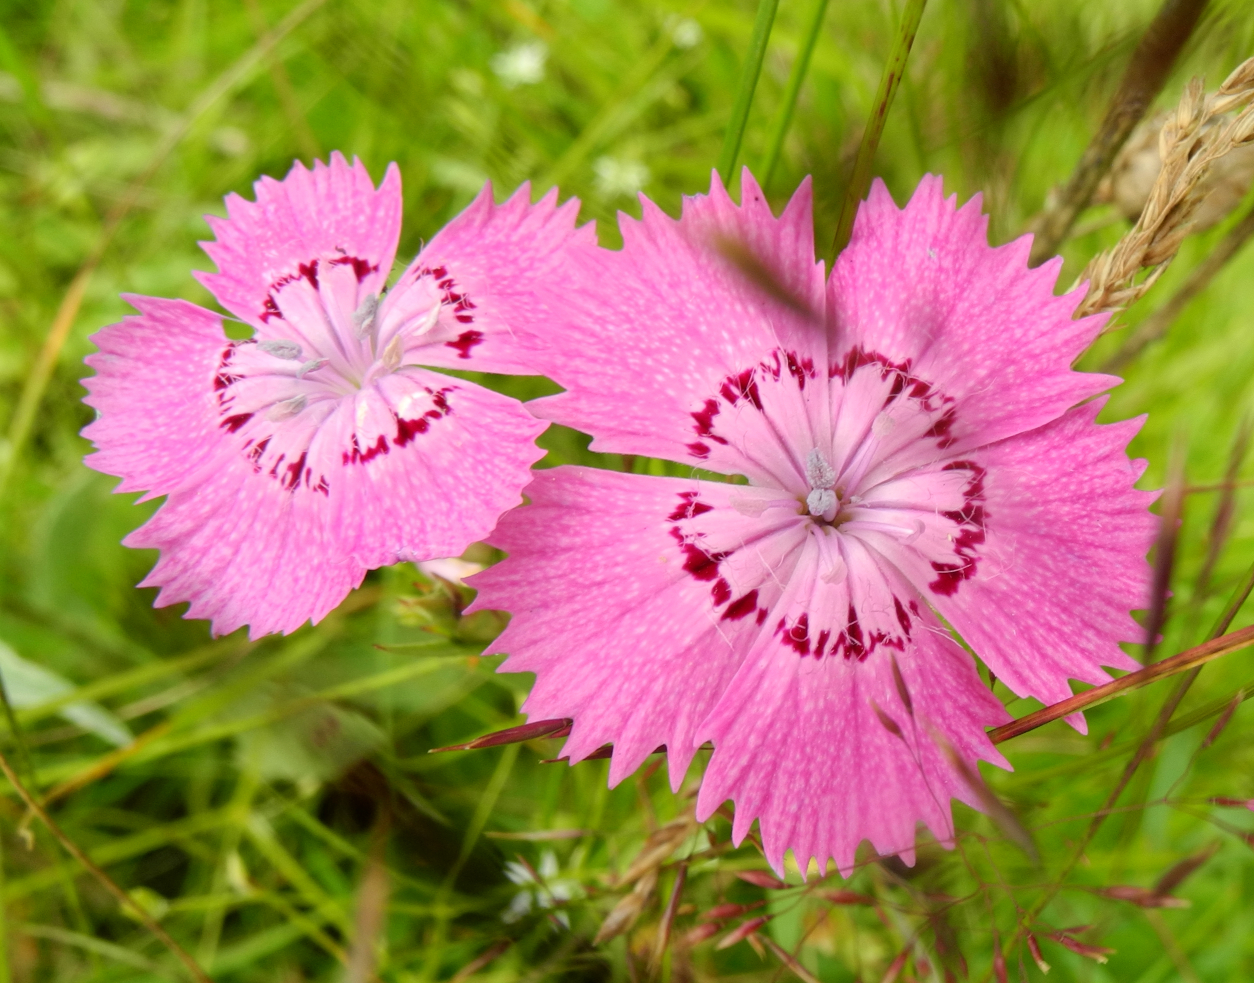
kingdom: Plantae
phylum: Tracheophyta
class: Magnoliopsida
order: Caryophyllales
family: Caryophyllaceae
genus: Dianthus
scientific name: Dianthus chinensis
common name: Rainbow pink
